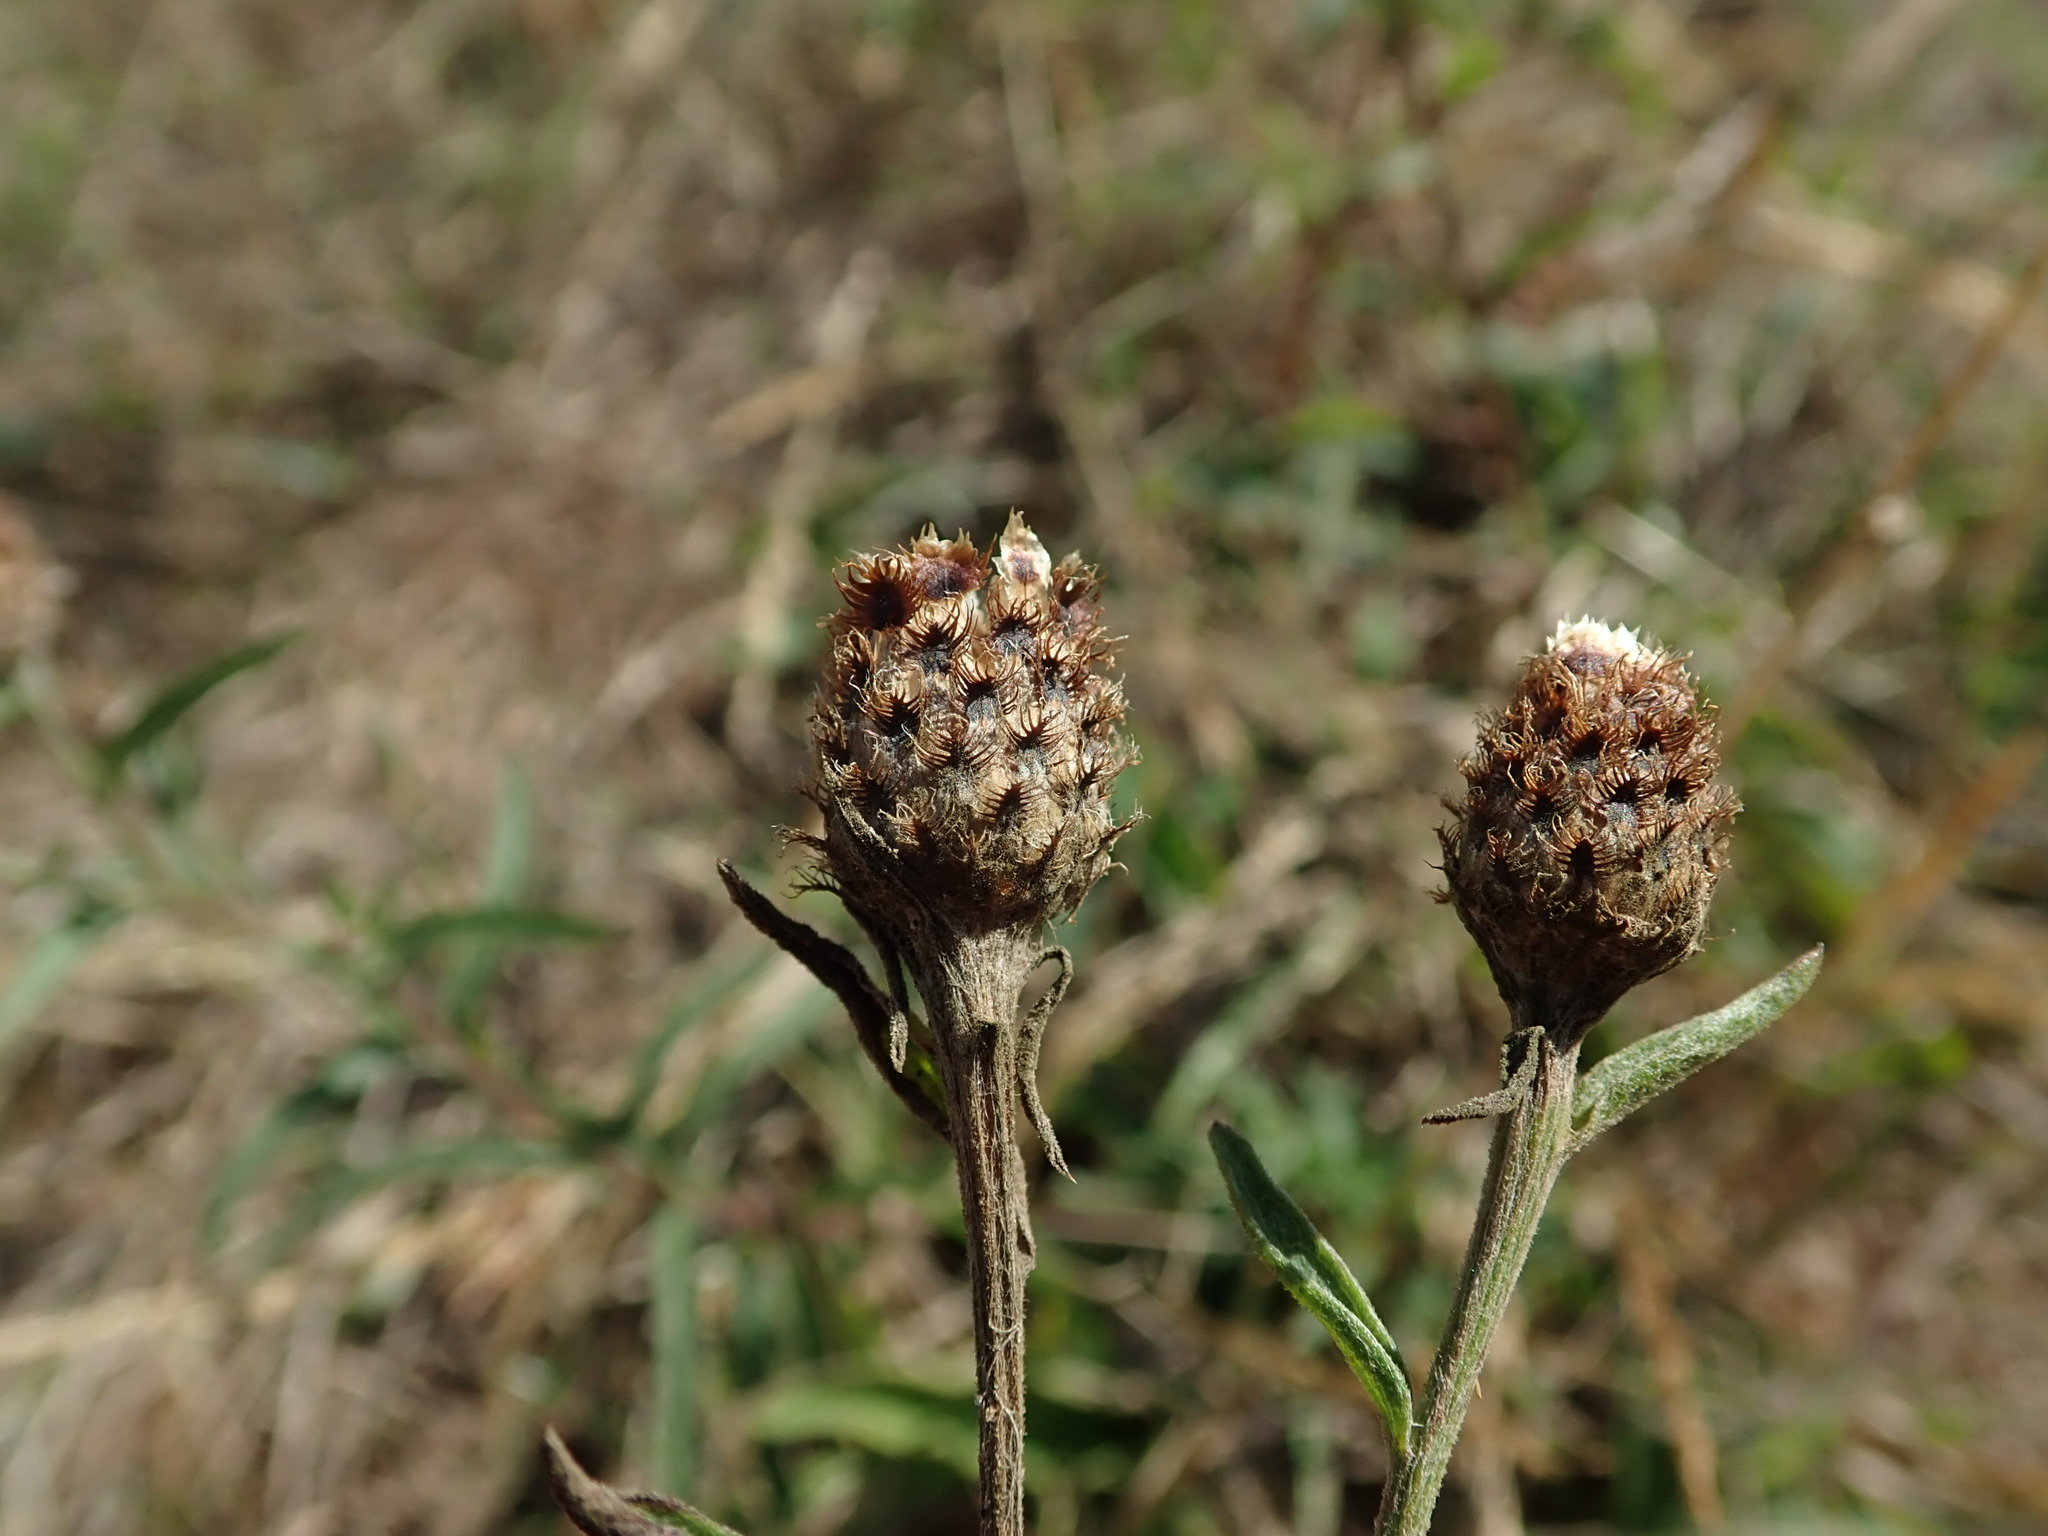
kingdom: Plantae
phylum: Tracheophyta
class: Magnoliopsida
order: Asterales
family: Asteraceae
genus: Centaurea
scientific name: Centaurea debeauxii
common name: Slender knapweed
